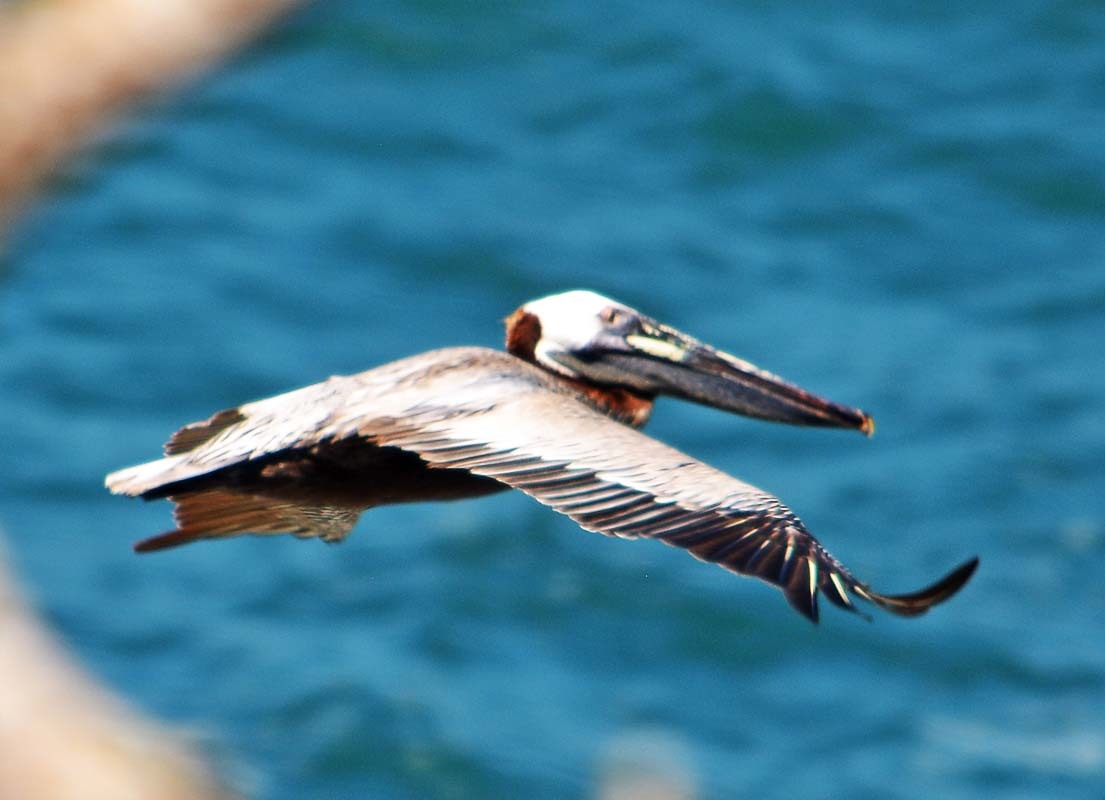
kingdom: Animalia
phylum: Chordata
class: Aves
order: Pelecaniformes
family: Pelecanidae
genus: Pelecanus
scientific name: Pelecanus occidentalis
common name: Brown pelican
